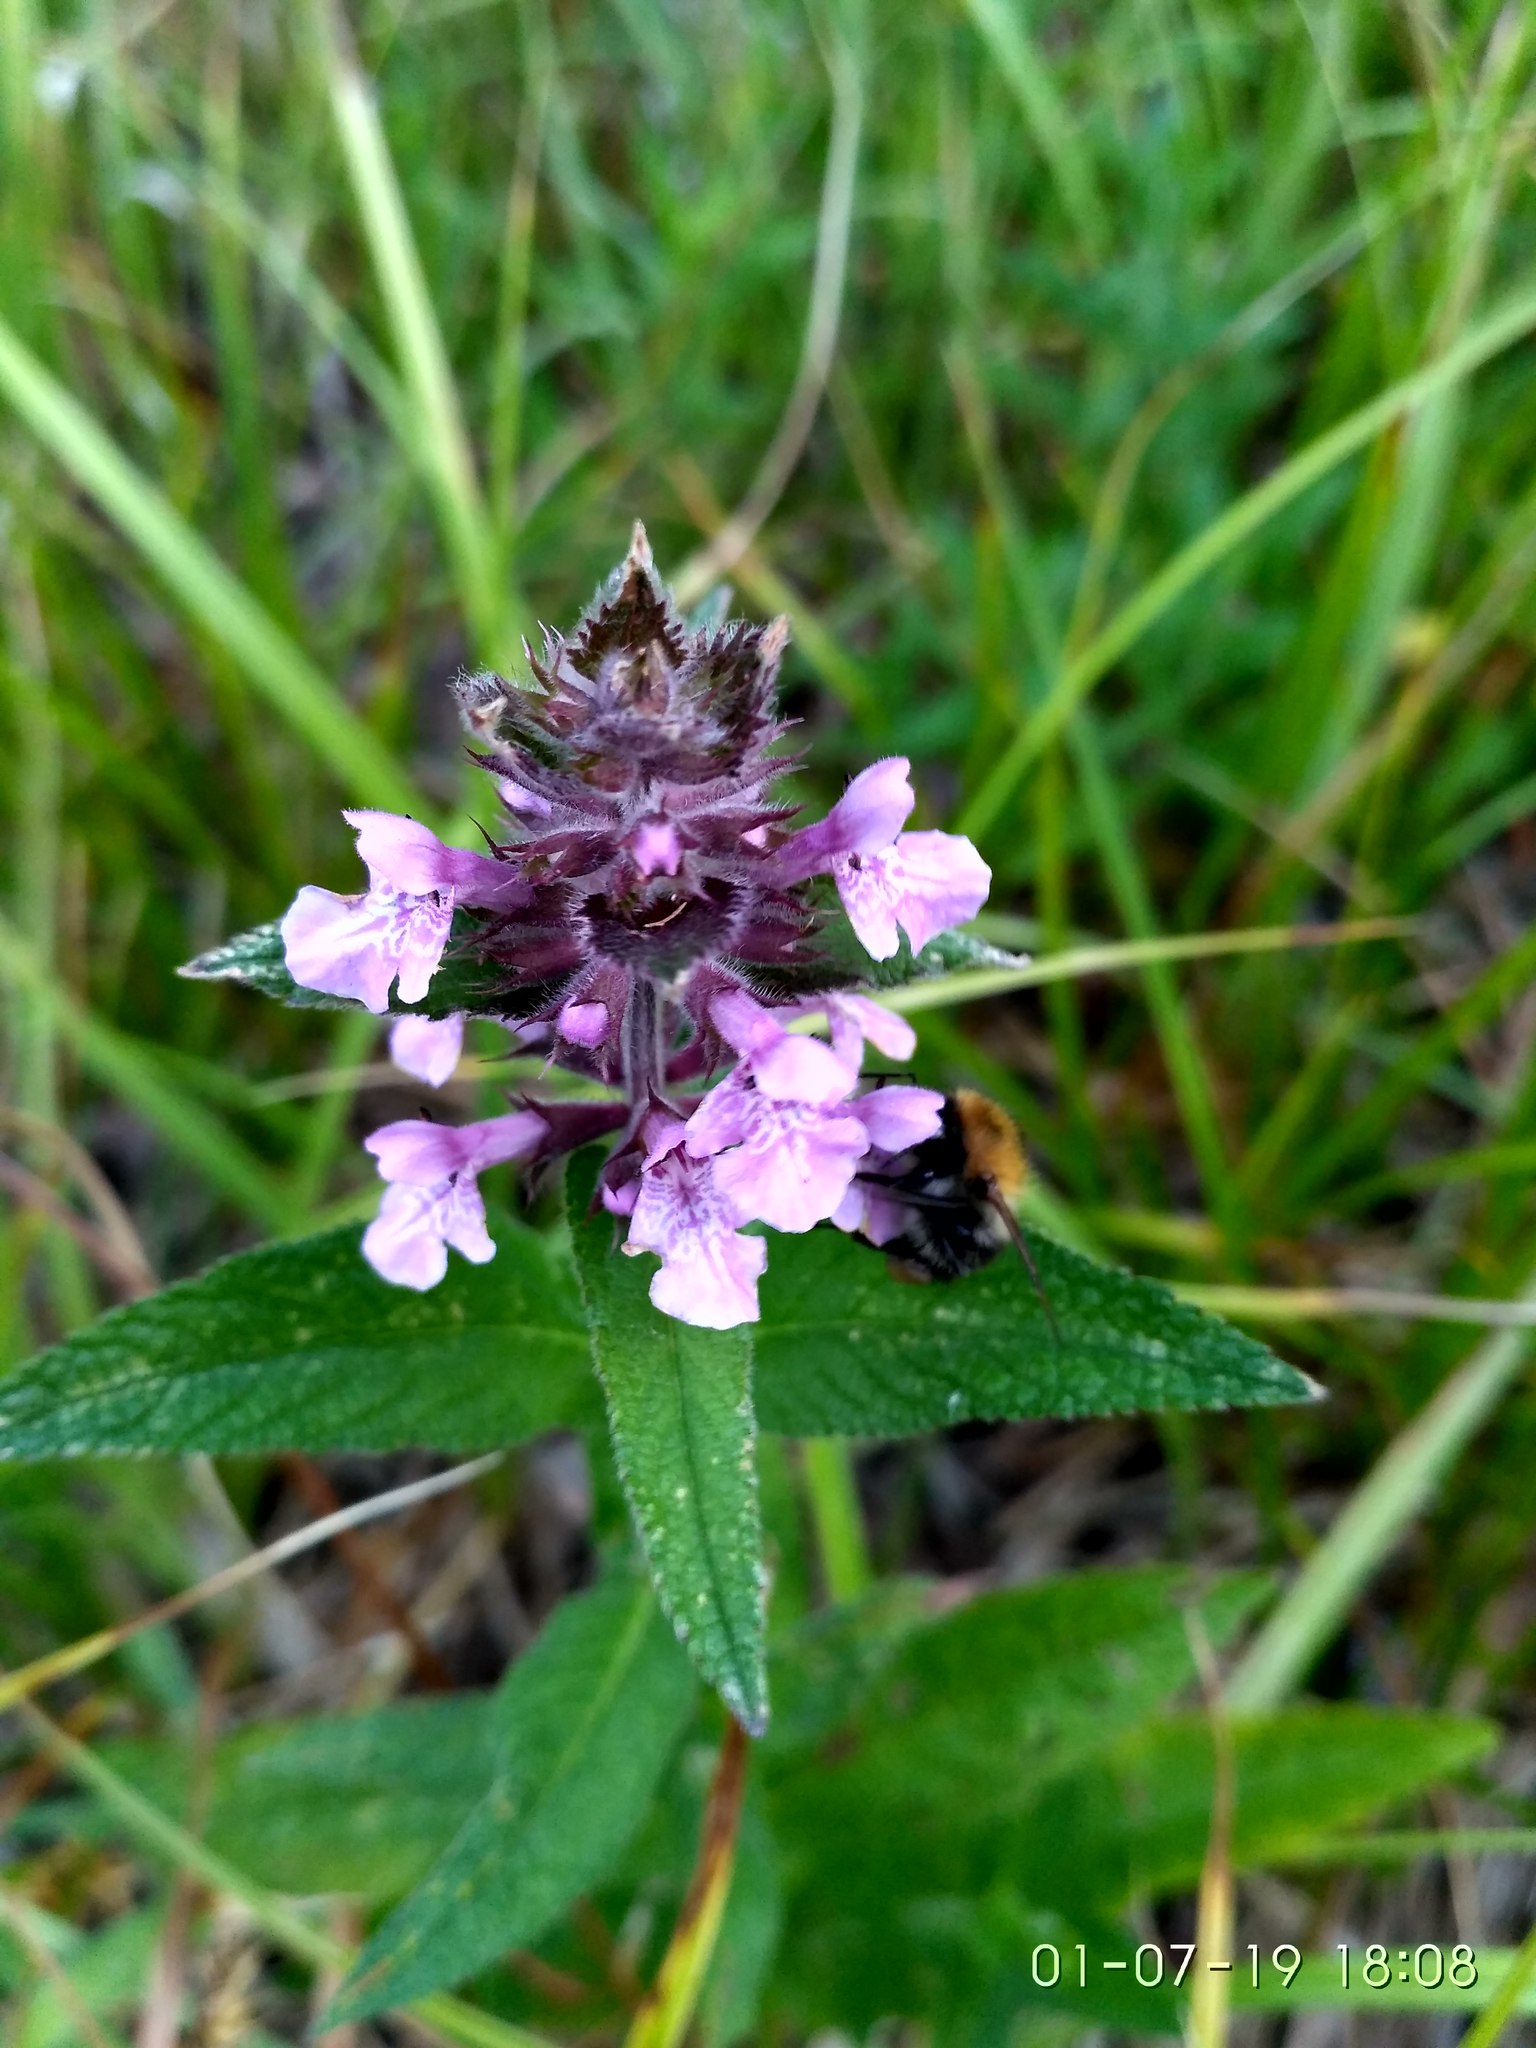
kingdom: Plantae
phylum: Tracheophyta
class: Magnoliopsida
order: Lamiales
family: Lamiaceae
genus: Stachys
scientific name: Stachys palustris
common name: Marsh woundwort
